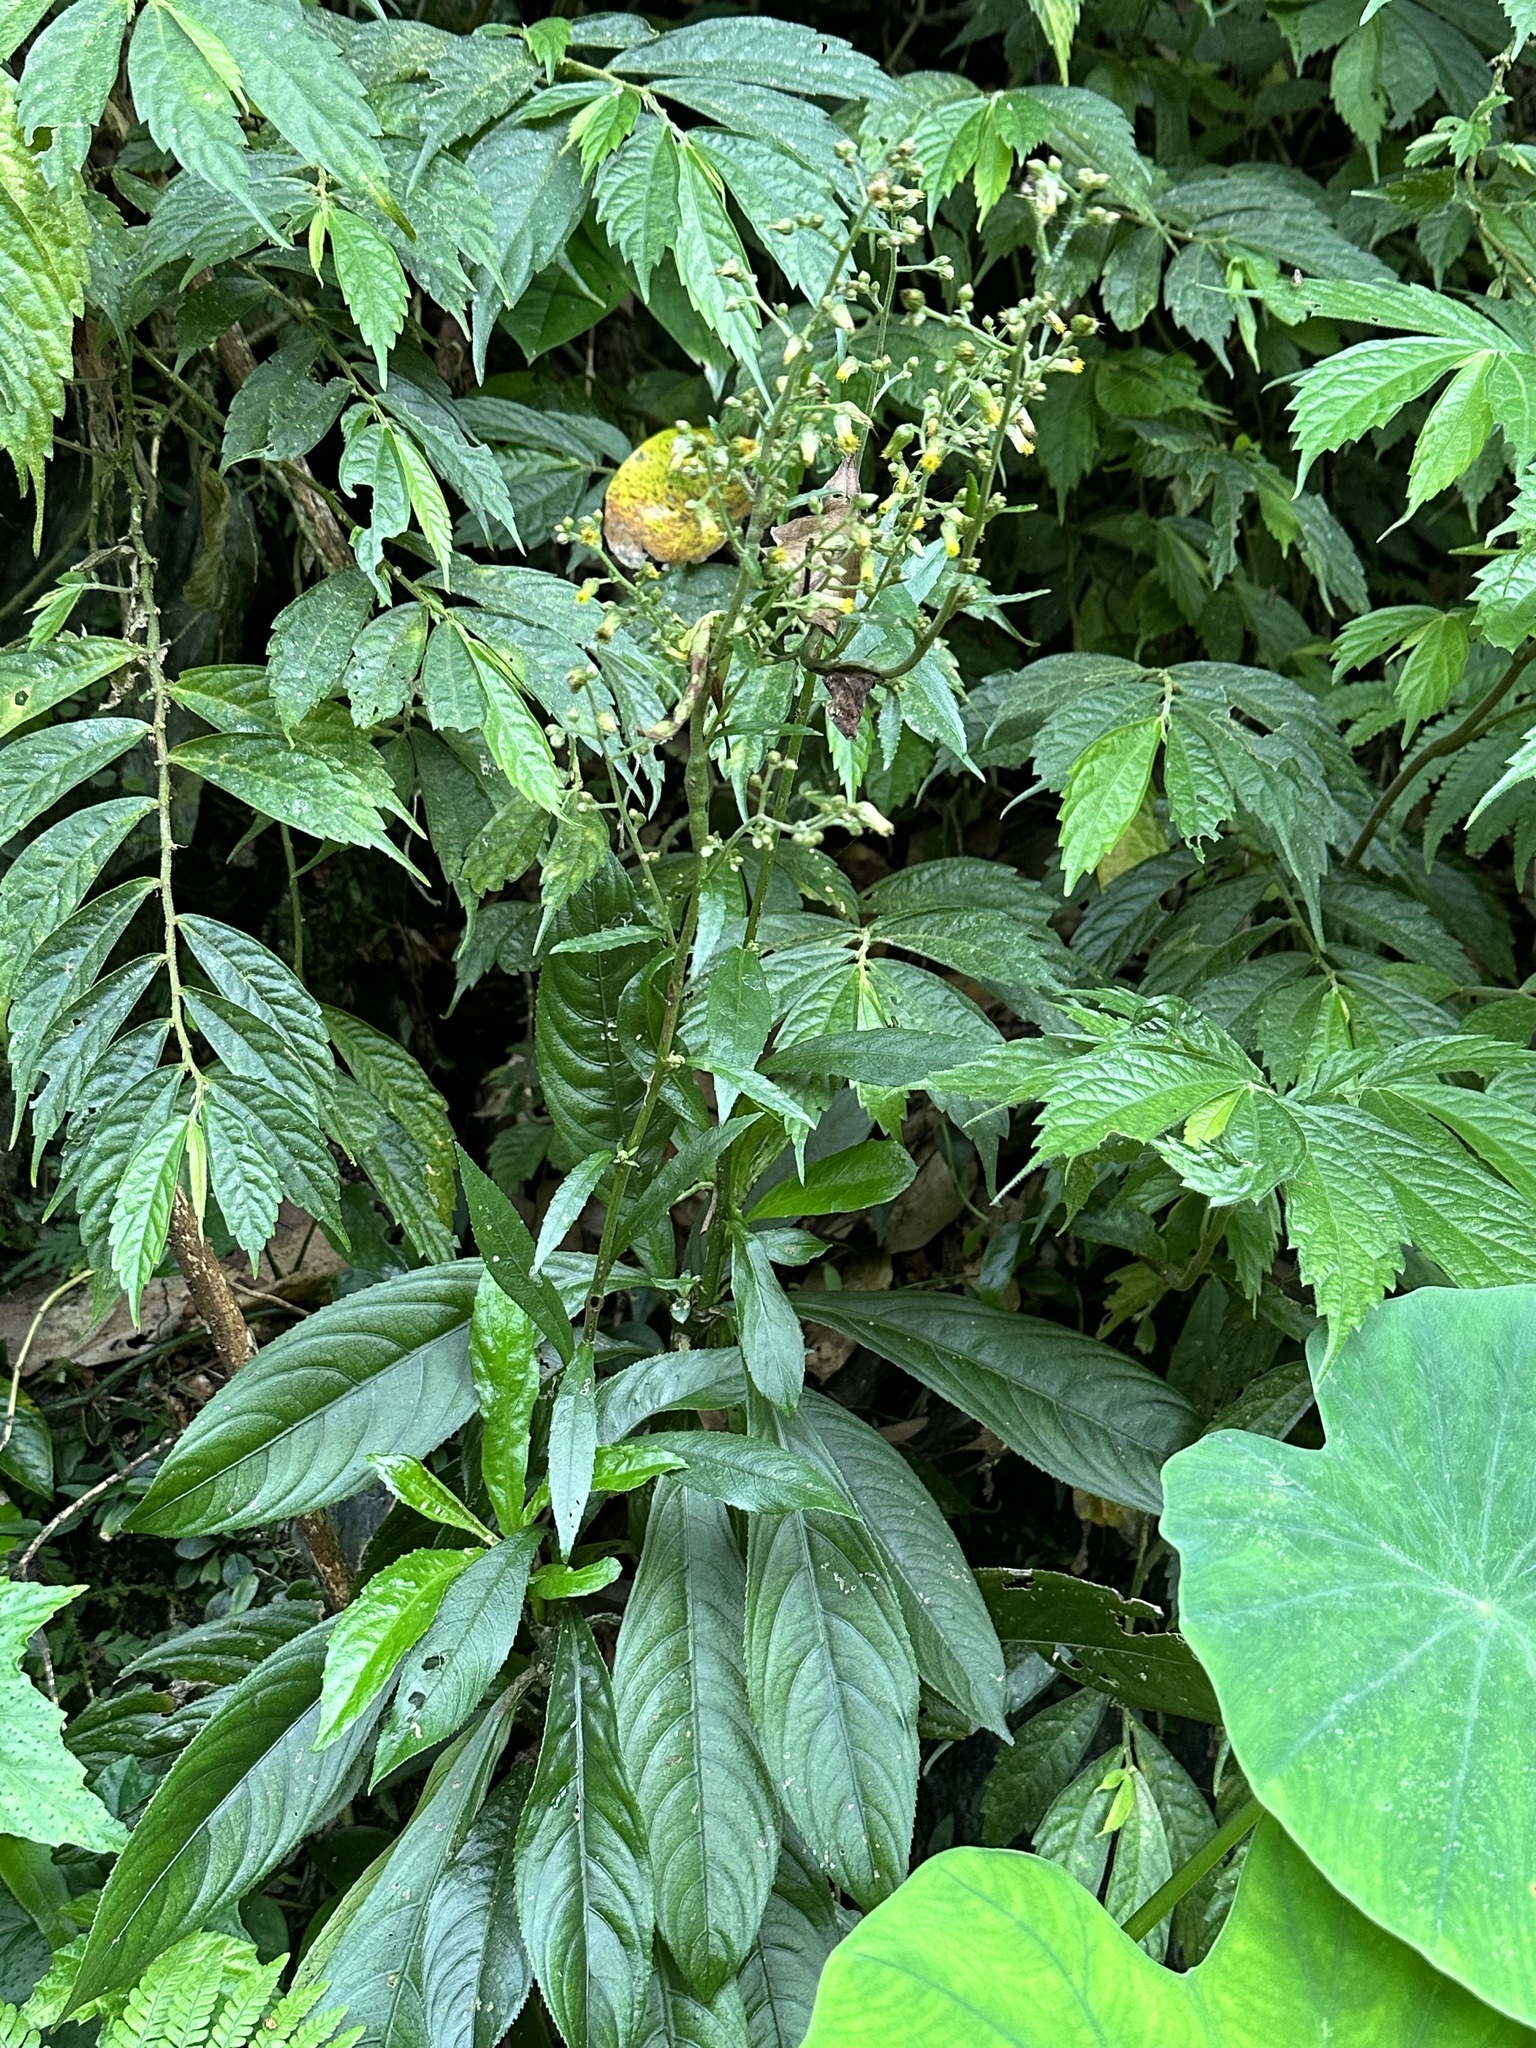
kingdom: Plantae
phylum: Tracheophyta
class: Magnoliopsida
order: Asterales
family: Asteraceae
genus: Blumea
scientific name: Blumea lanceolaria
